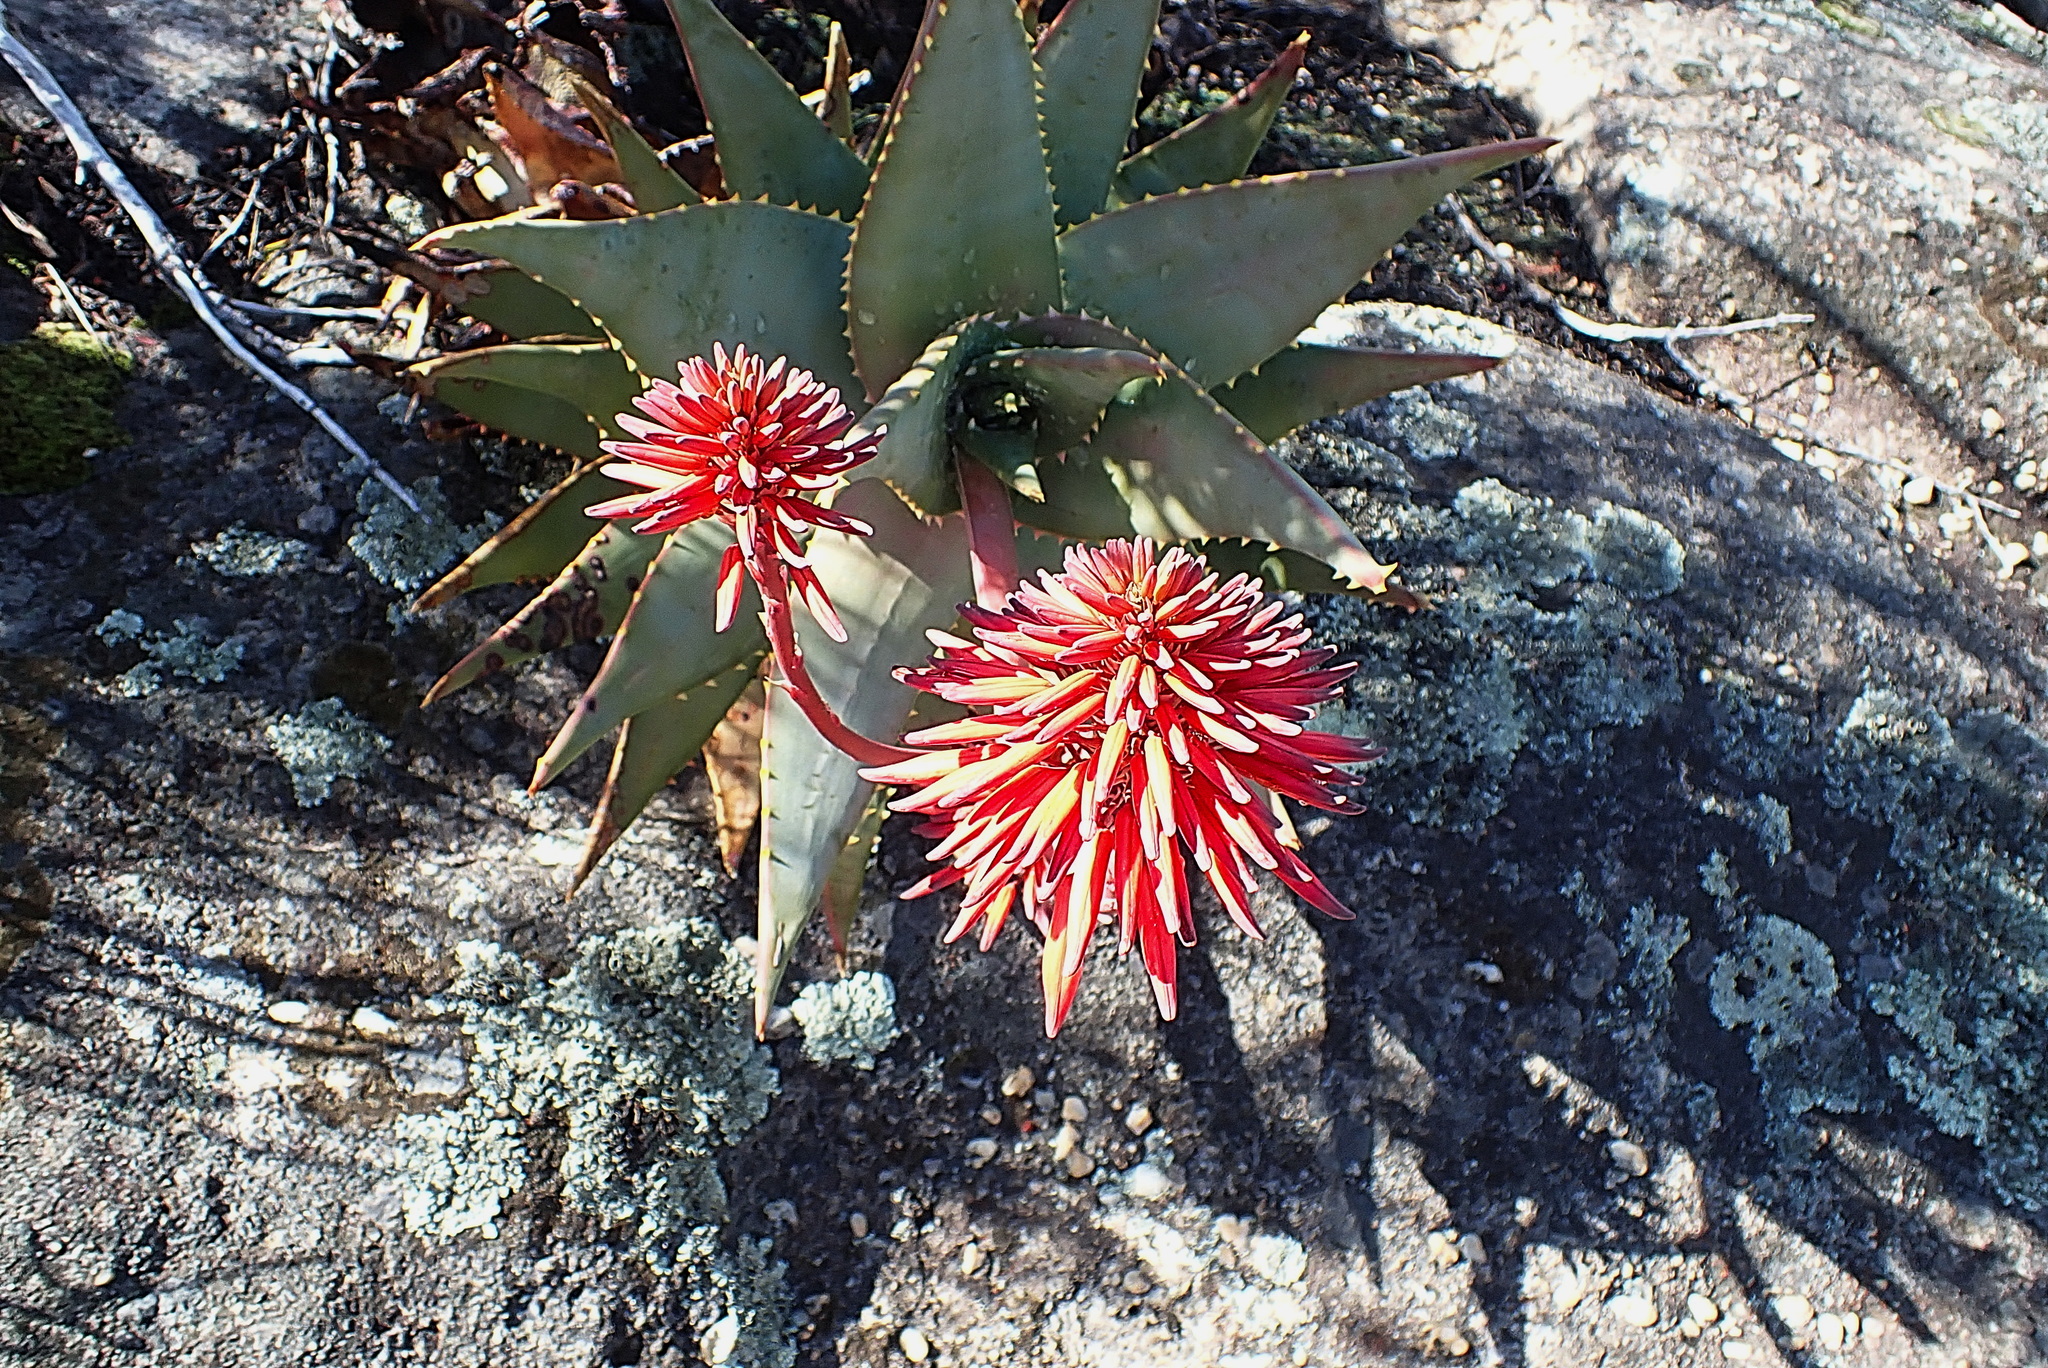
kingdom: Plantae
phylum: Tracheophyta
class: Liliopsida
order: Asparagales
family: Asphodelaceae
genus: Aloe
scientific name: Aloe perfoliata
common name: Mitra aloe
